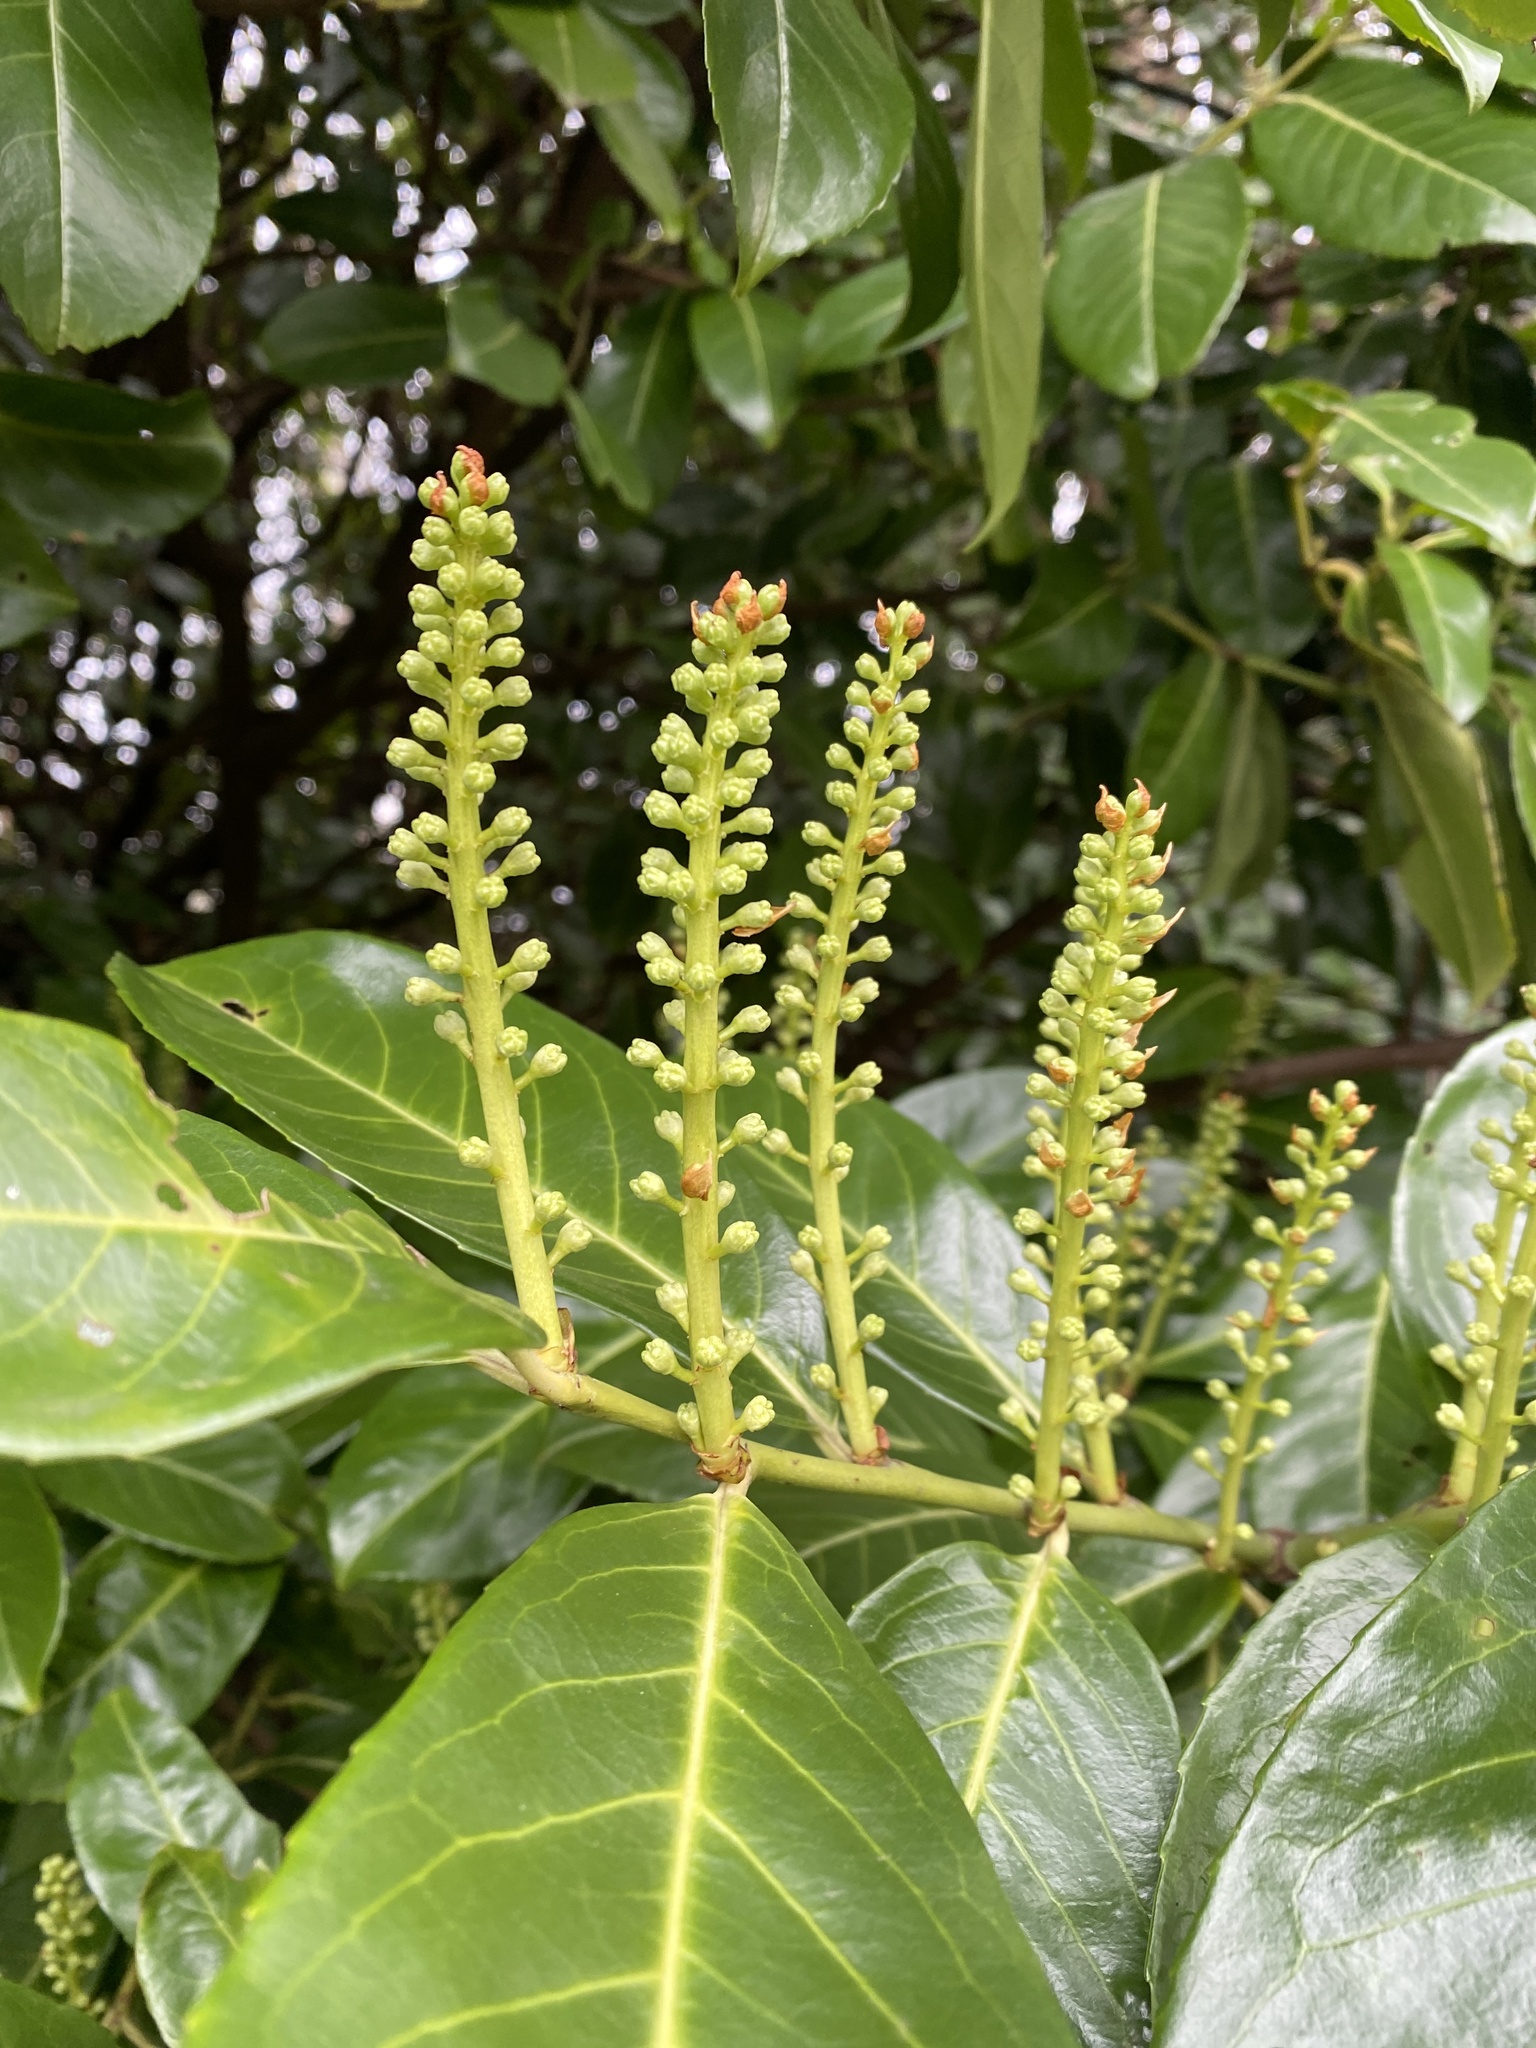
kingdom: Plantae
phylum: Tracheophyta
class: Magnoliopsida
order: Rosales
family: Rosaceae
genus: Prunus
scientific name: Prunus laurocerasus
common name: Cherry laurel
